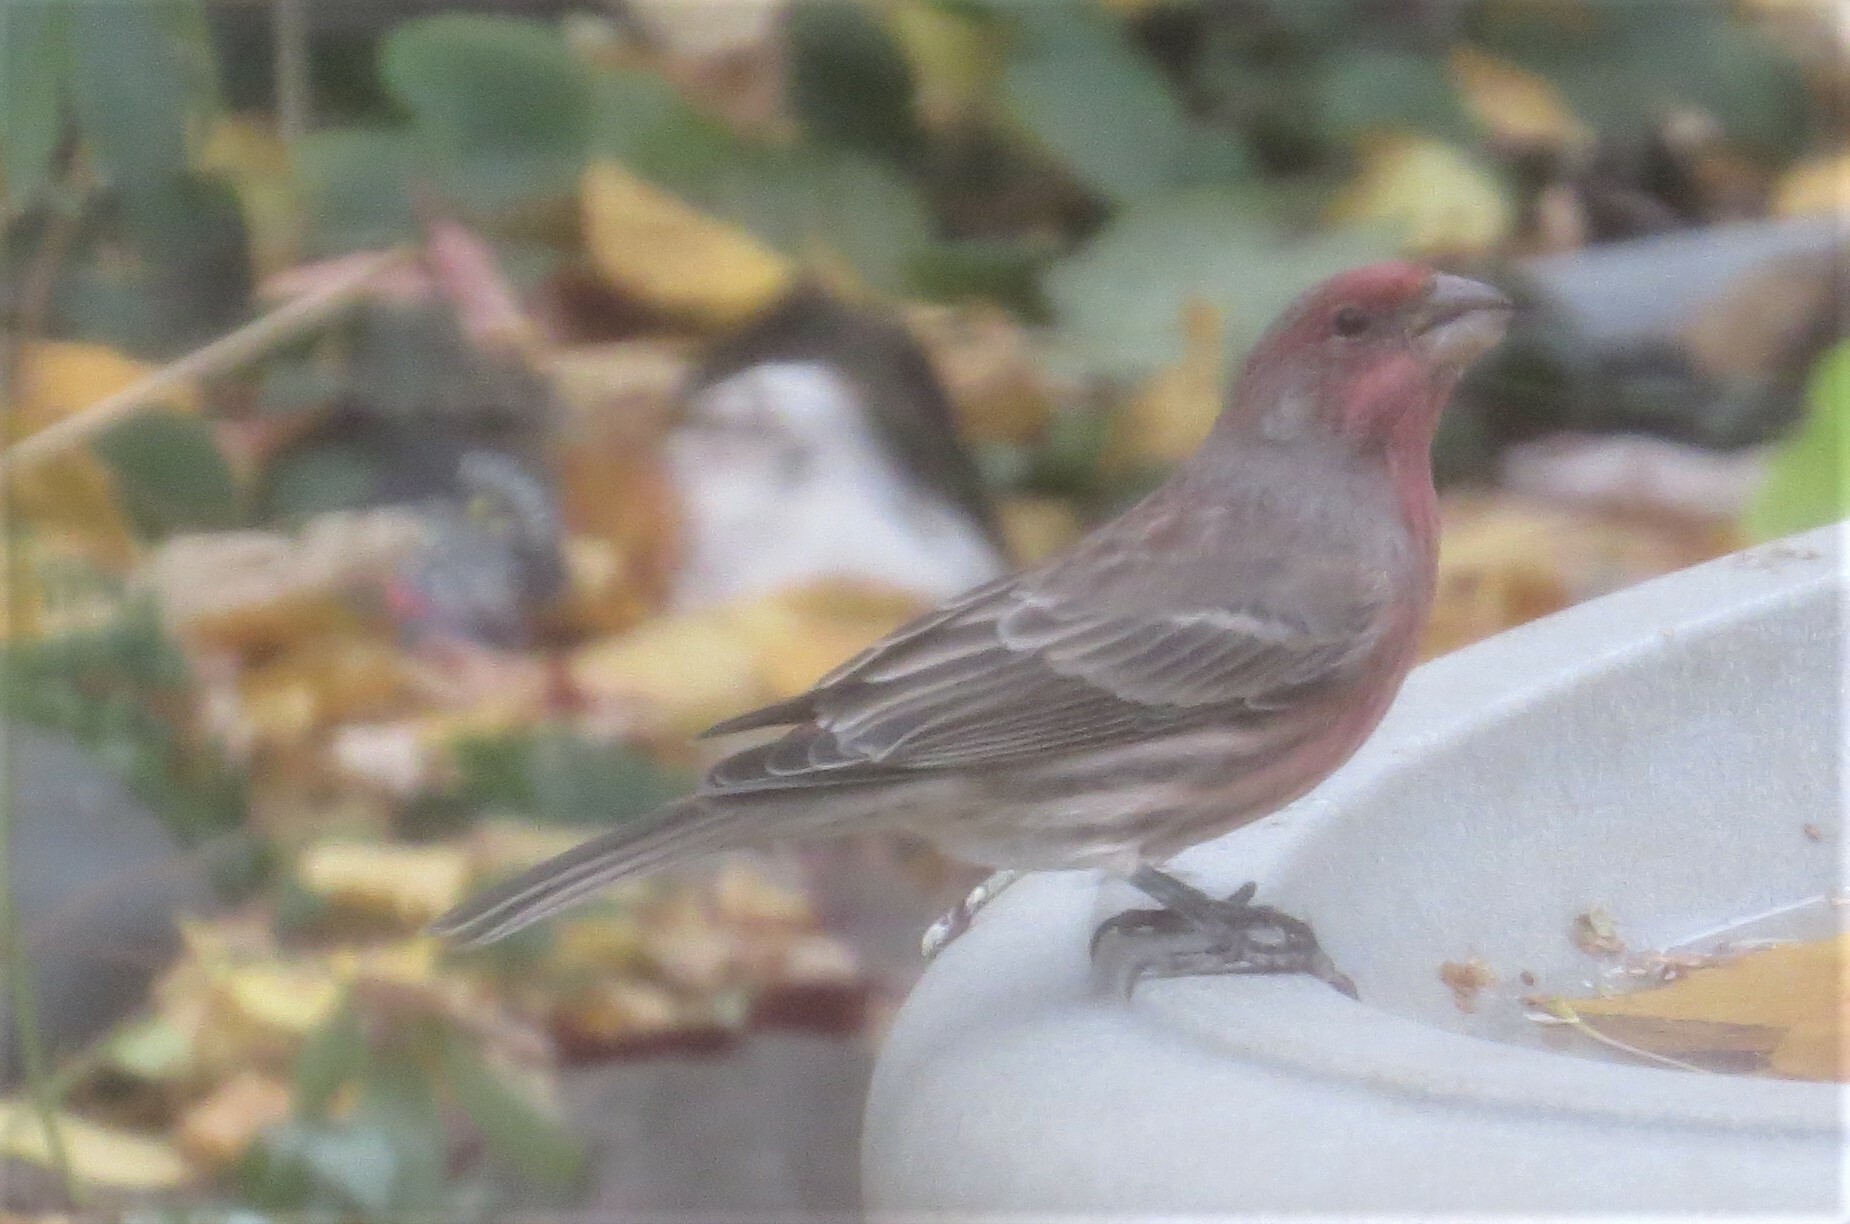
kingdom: Animalia
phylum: Chordata
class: Aves
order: Passeriformes
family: Fringillidae
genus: Haemorhous
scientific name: Haemorhous mexicanus
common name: House finch
